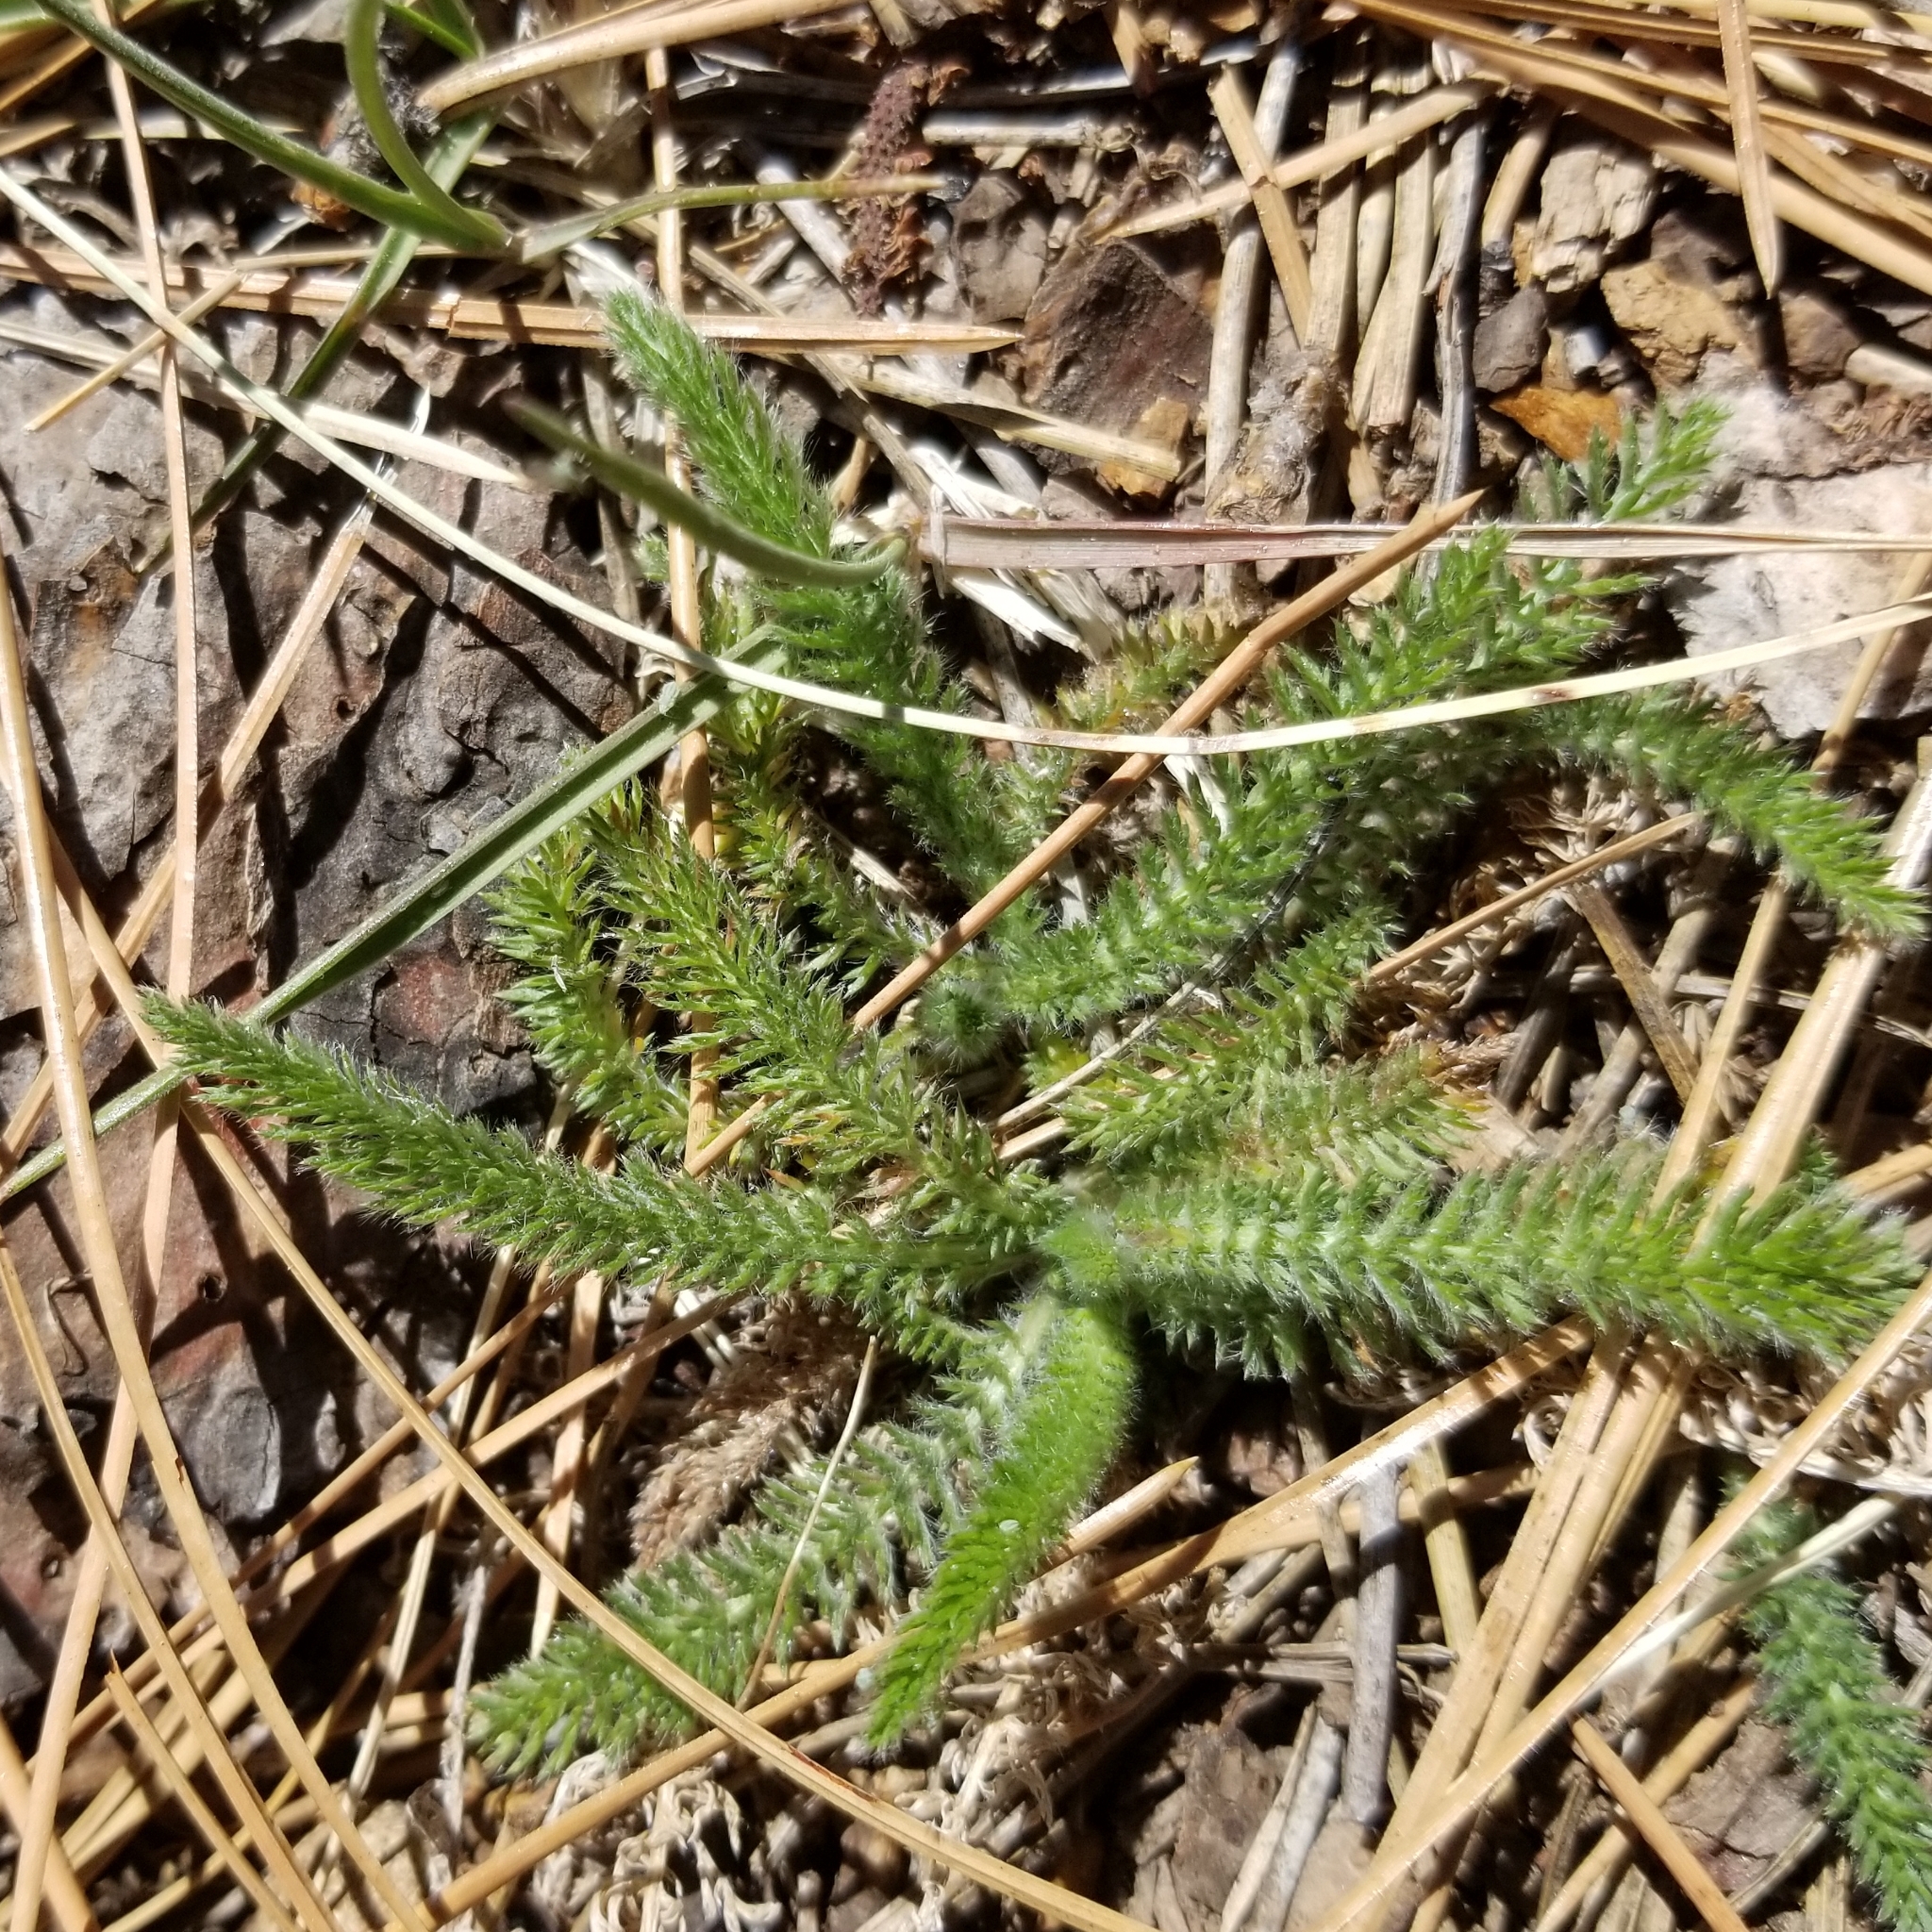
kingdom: Plantae
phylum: Tracheophyta
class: Magnoliopsida
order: Asterales
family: Asteraceae
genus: Achillea
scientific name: Achillea millefolium
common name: Yarrow
